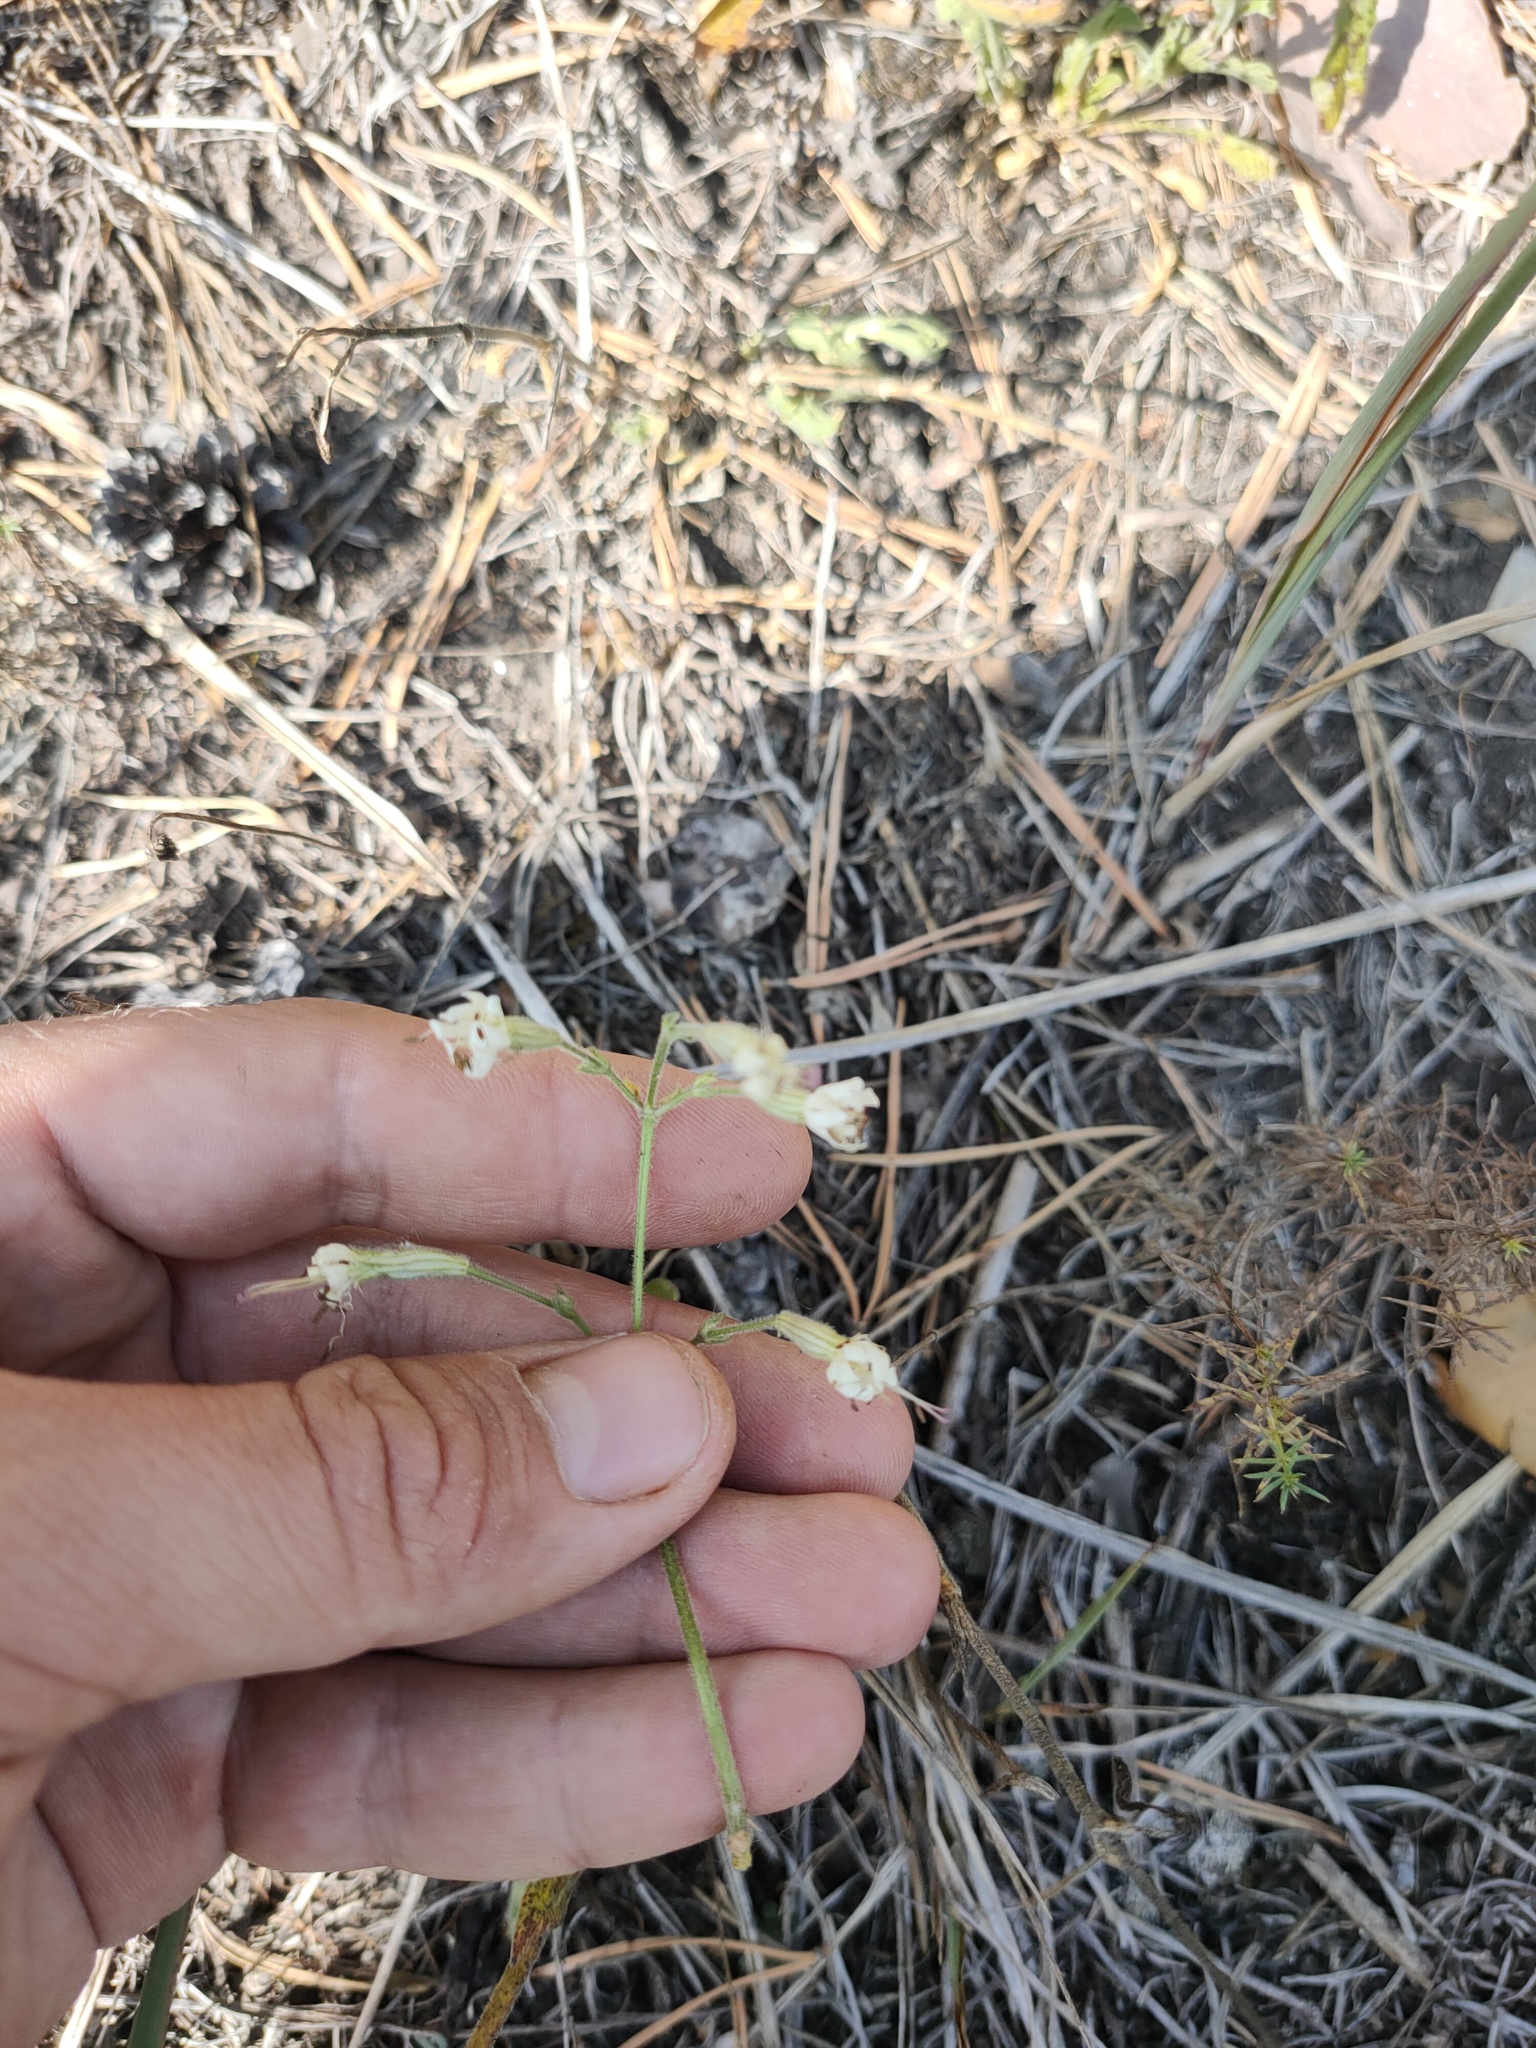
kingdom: Plantae
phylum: Tracheophyta
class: Magnoliopsida
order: Caryophyllales
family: Caryophyllaceae
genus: Silene
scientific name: Silene nutans
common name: Nottingham catchfly
